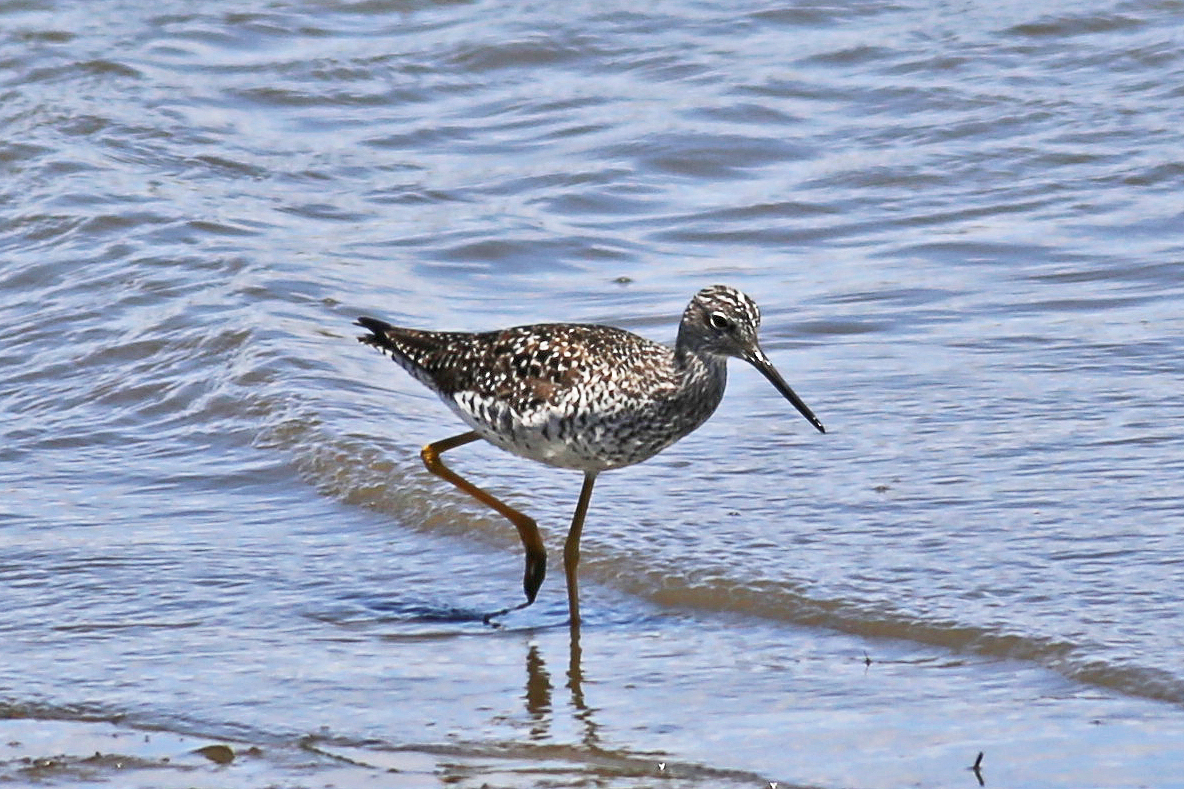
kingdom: Animalia
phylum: Chordata
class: Aves
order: Charadriiformes
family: Scolopacidae
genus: Tringa
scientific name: Tringa melanoleuca
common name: Greater yellowlegs
